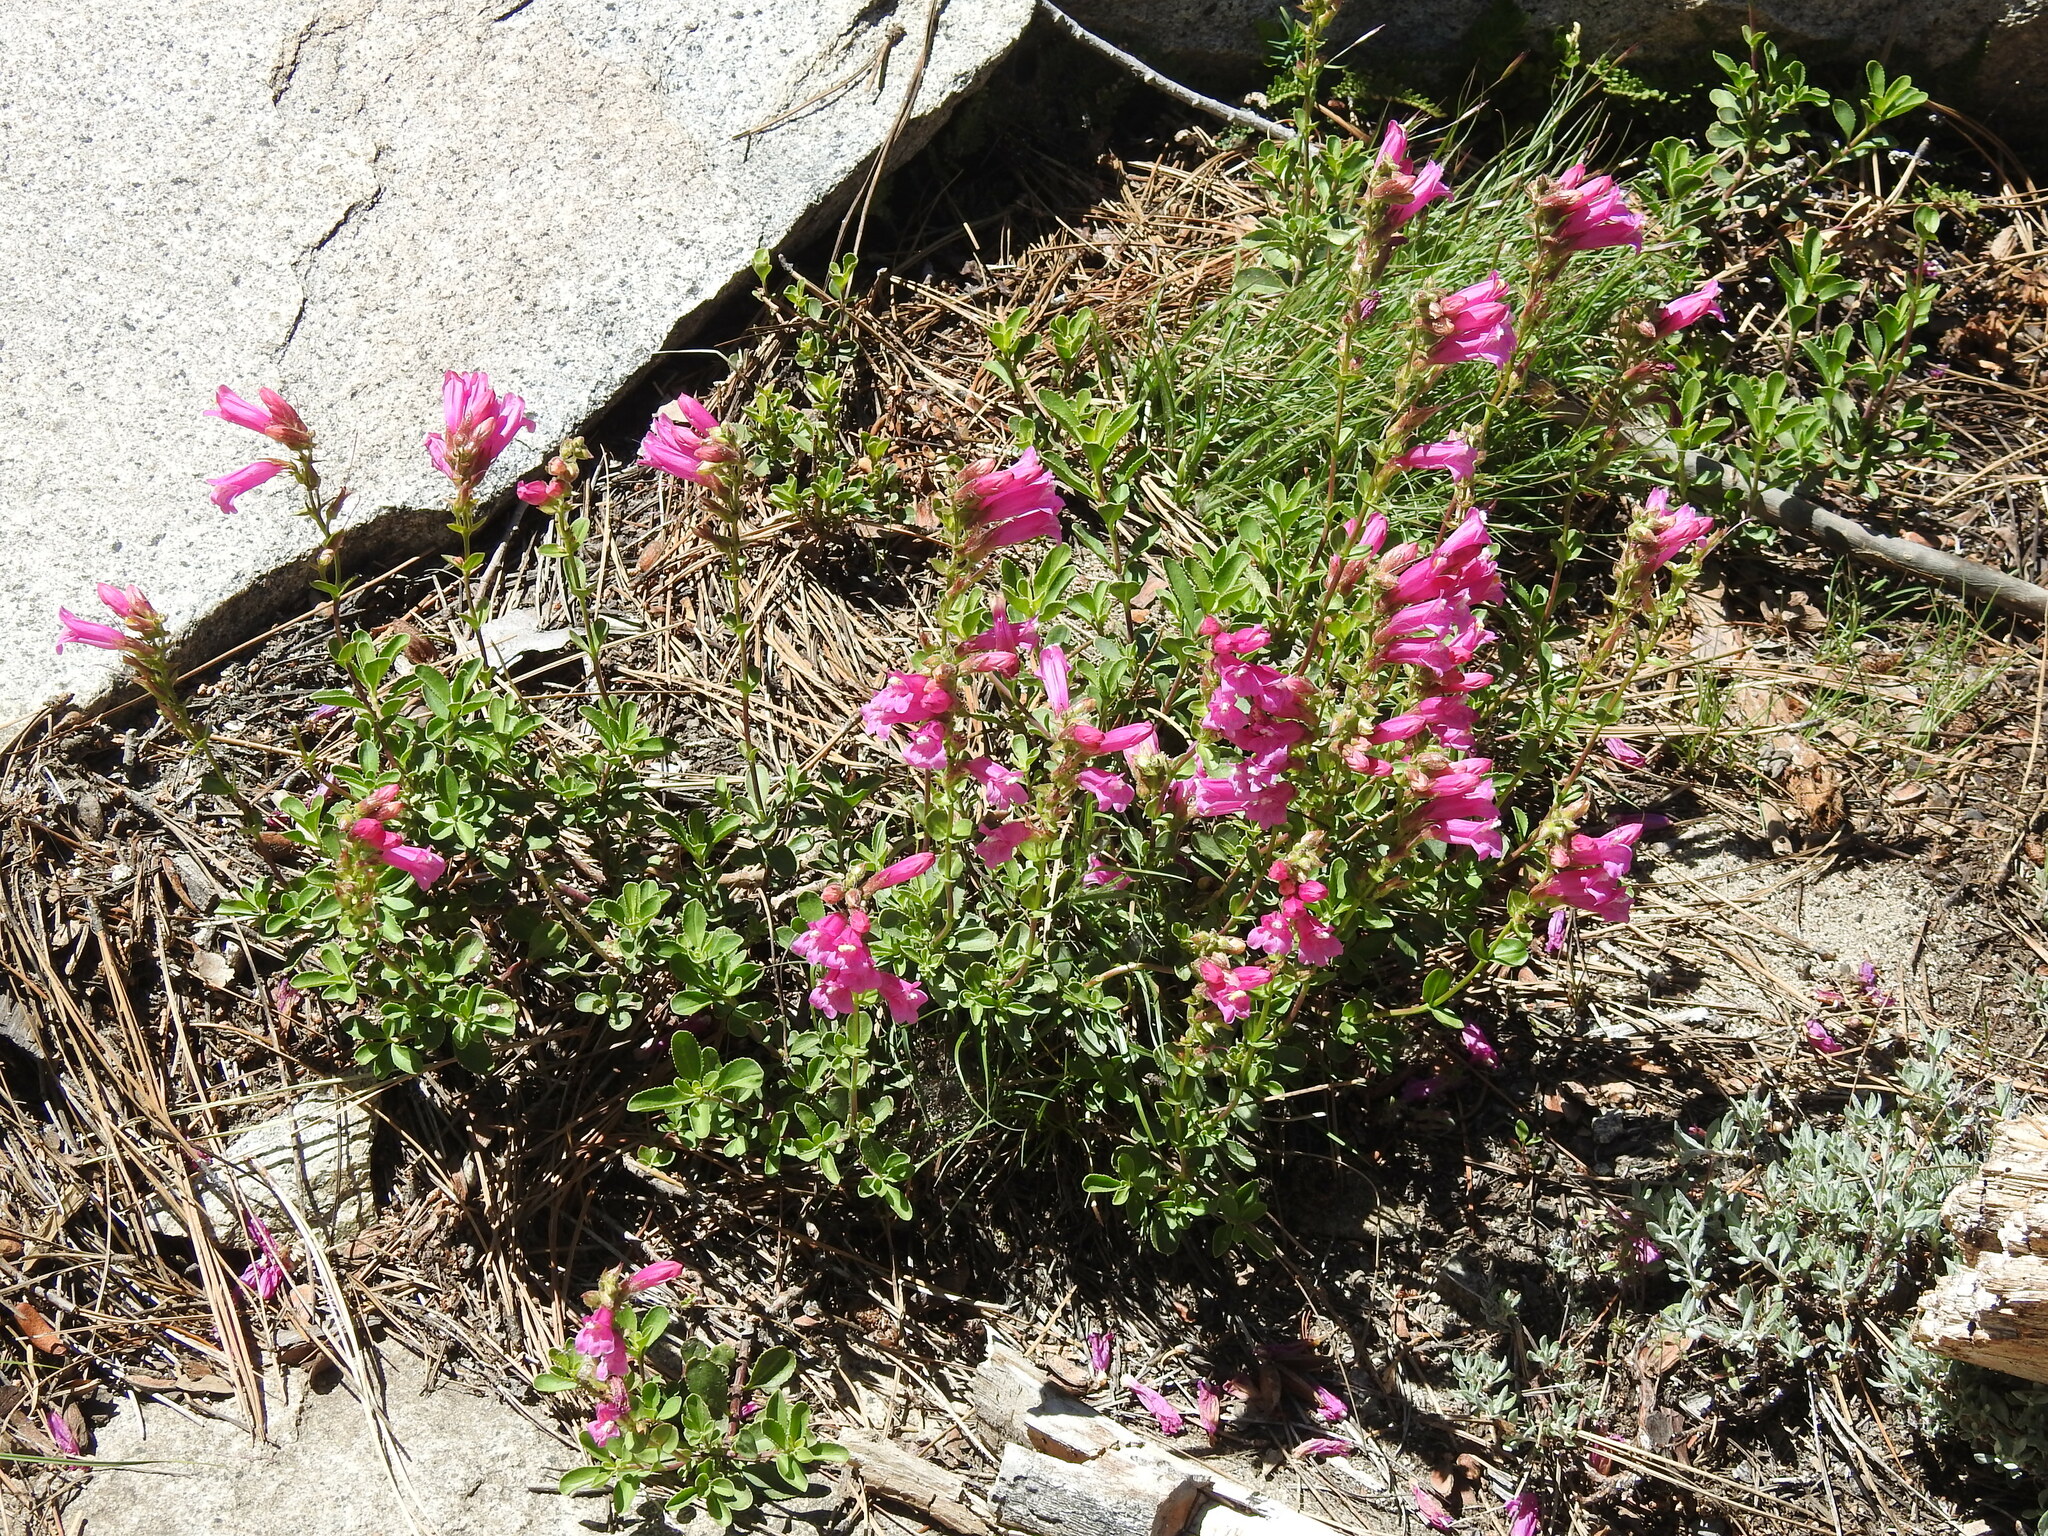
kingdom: Plantae
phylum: Tracheophyta
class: Magnoliopsida
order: Lamiales
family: Plantaginaceae
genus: Penstemon
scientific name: Penstemon newberryi
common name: Mountain-pride
